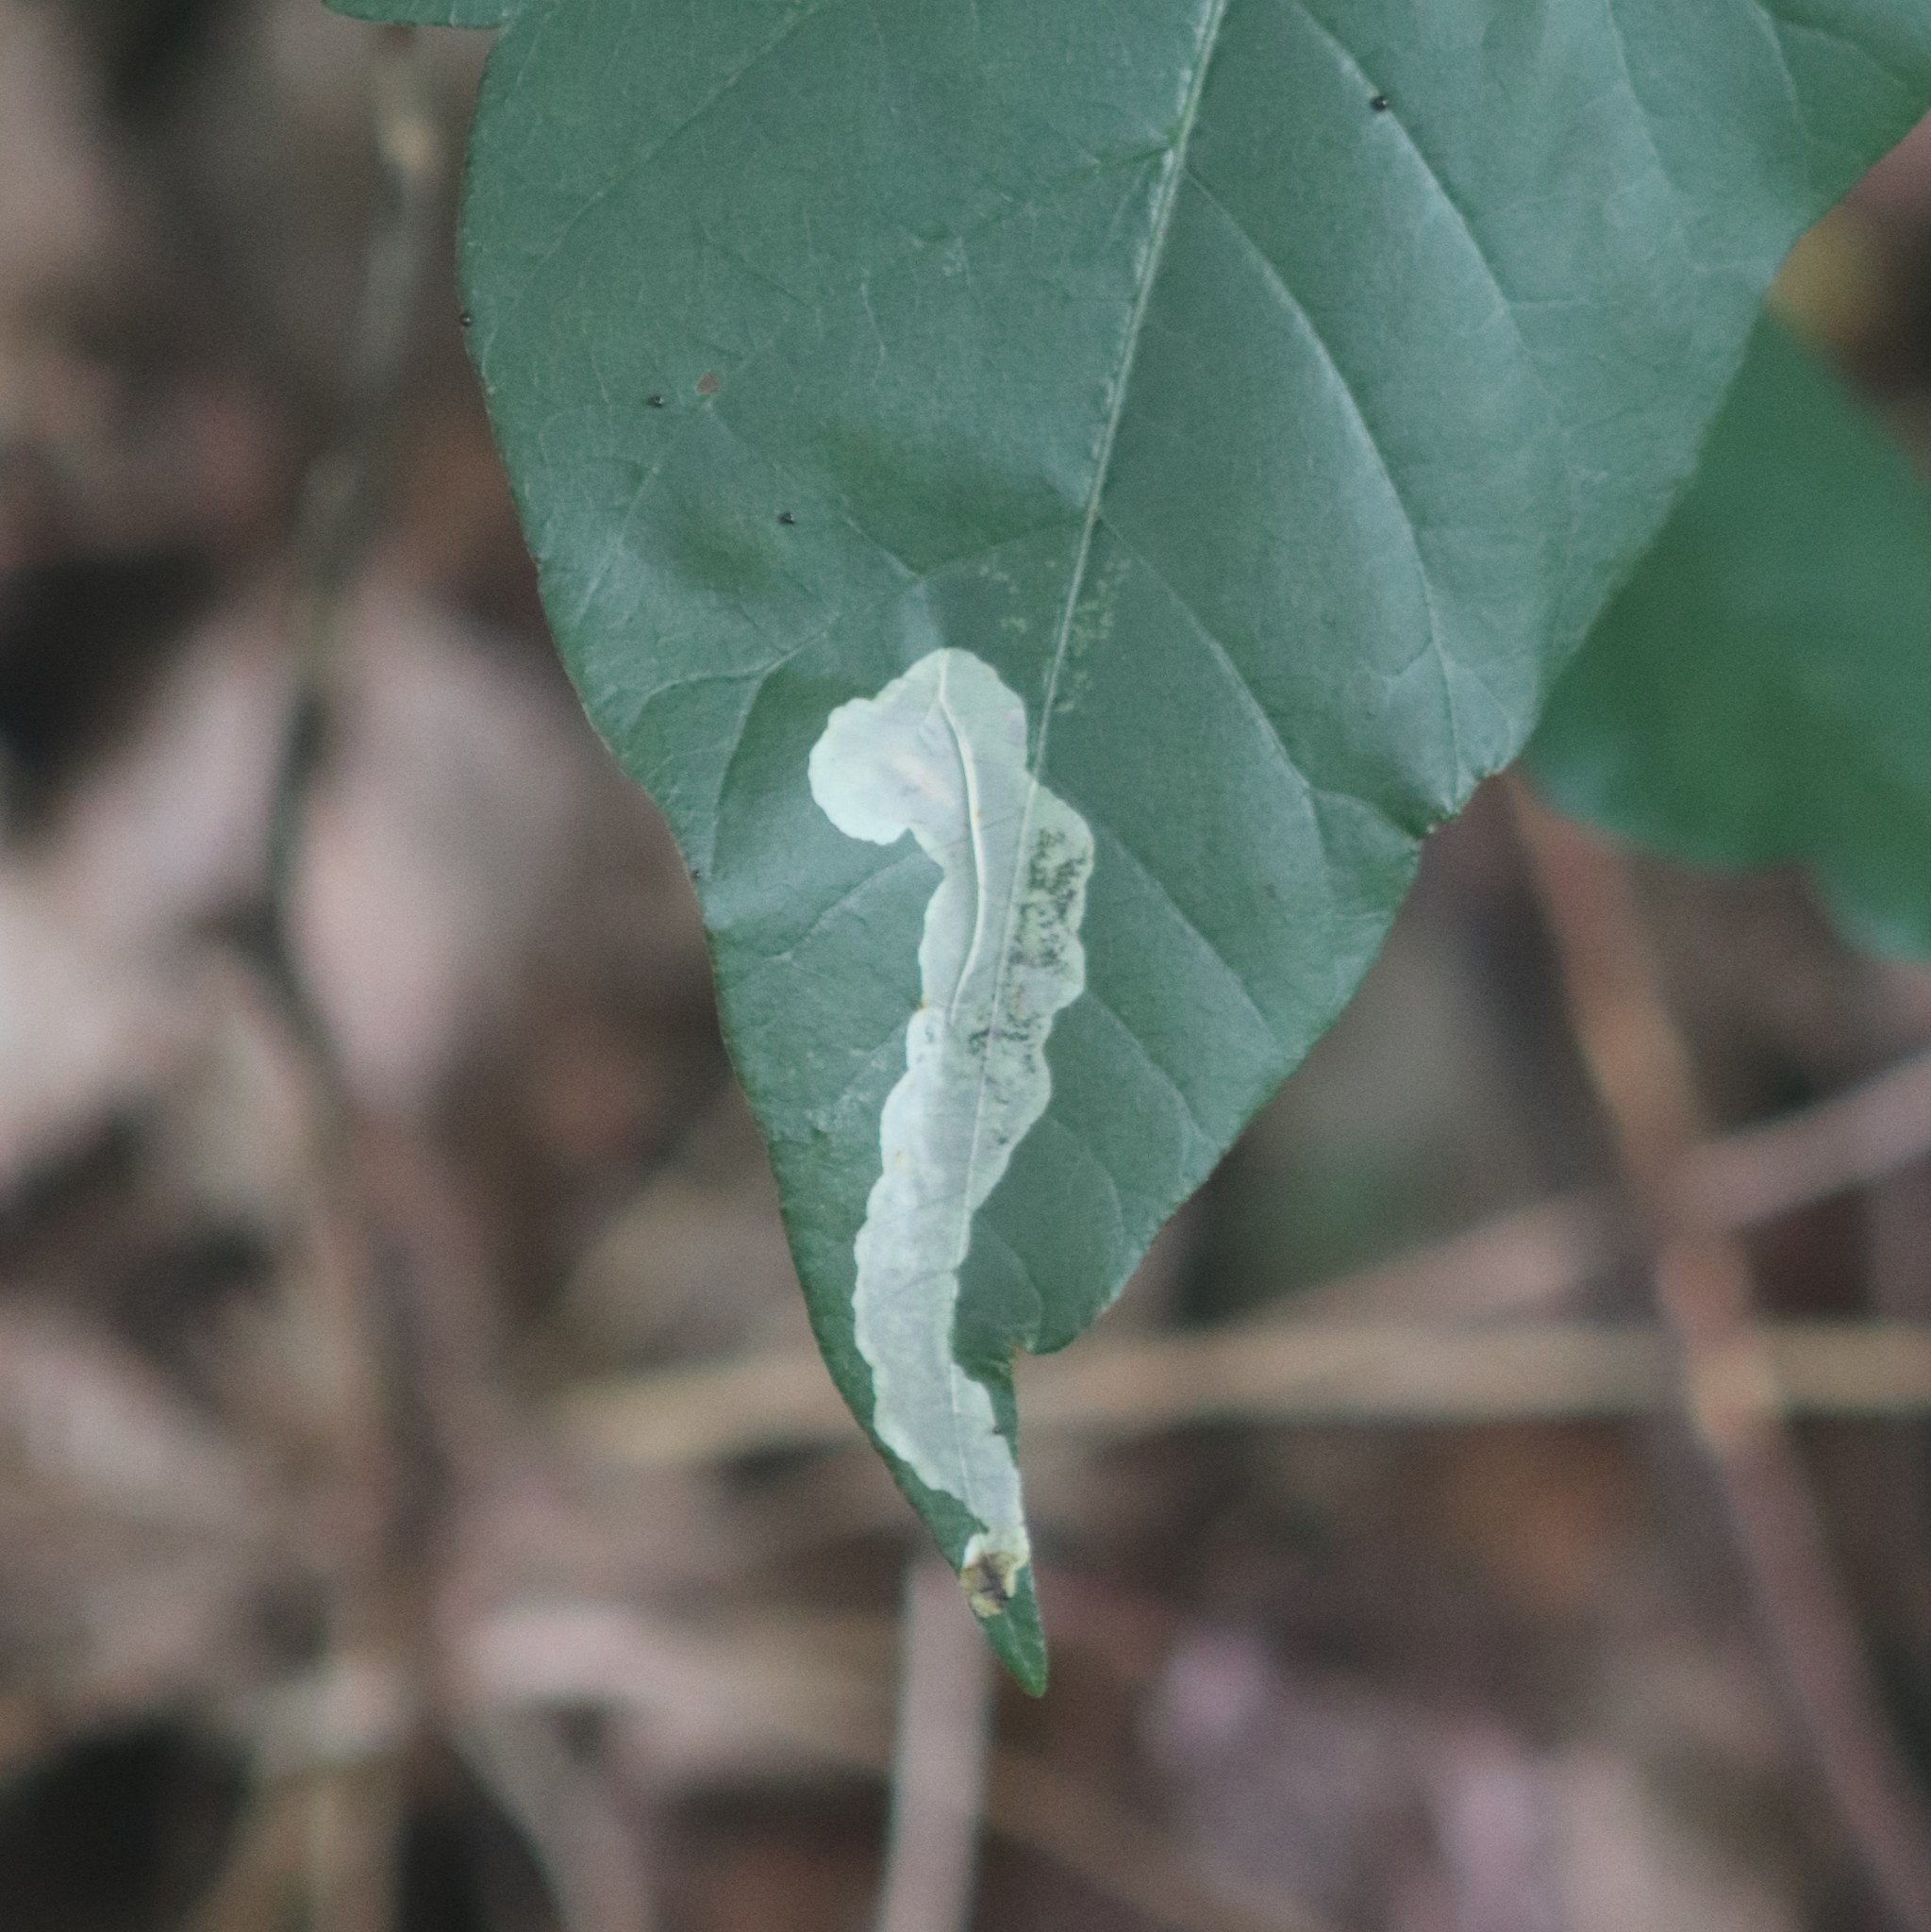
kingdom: Animalia
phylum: Arthropoda
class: Insecta
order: Lepidoptera
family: Gracillariidae
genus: Cameraria
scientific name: Cameraria guttifinitella
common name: Poison ivy leaf-miner moth
